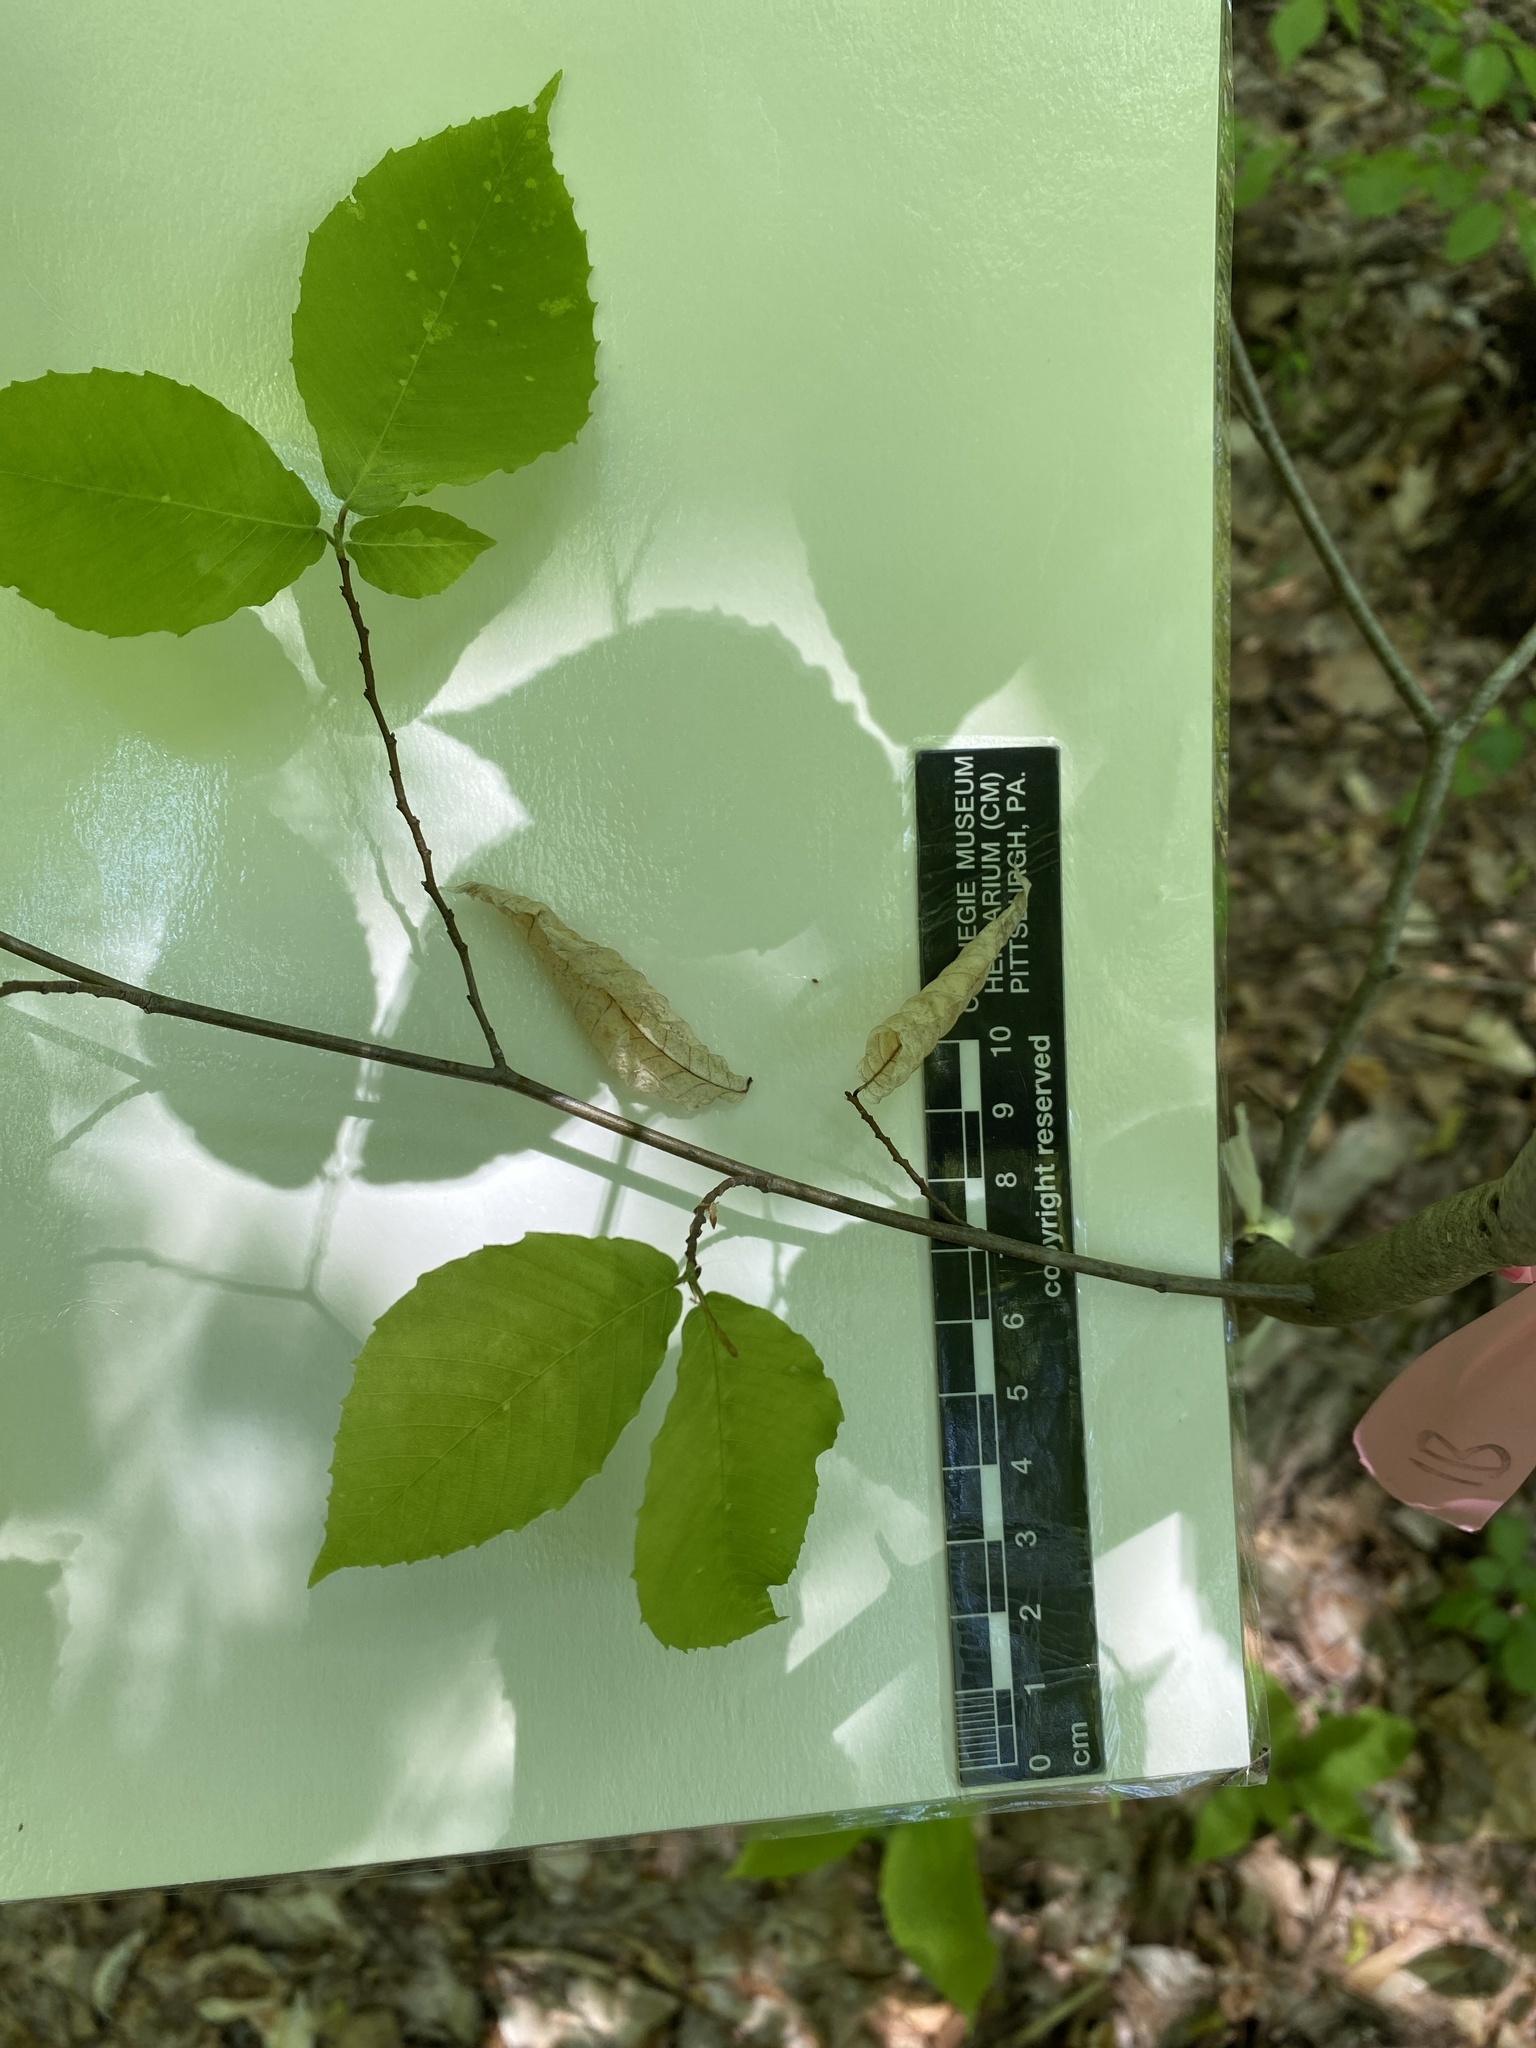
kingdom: Plantae
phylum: Tracheophyta
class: Magnoliopsida
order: Fagales
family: Fagaceae
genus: Fagus
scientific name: Fagus grandifolia
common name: American beech
